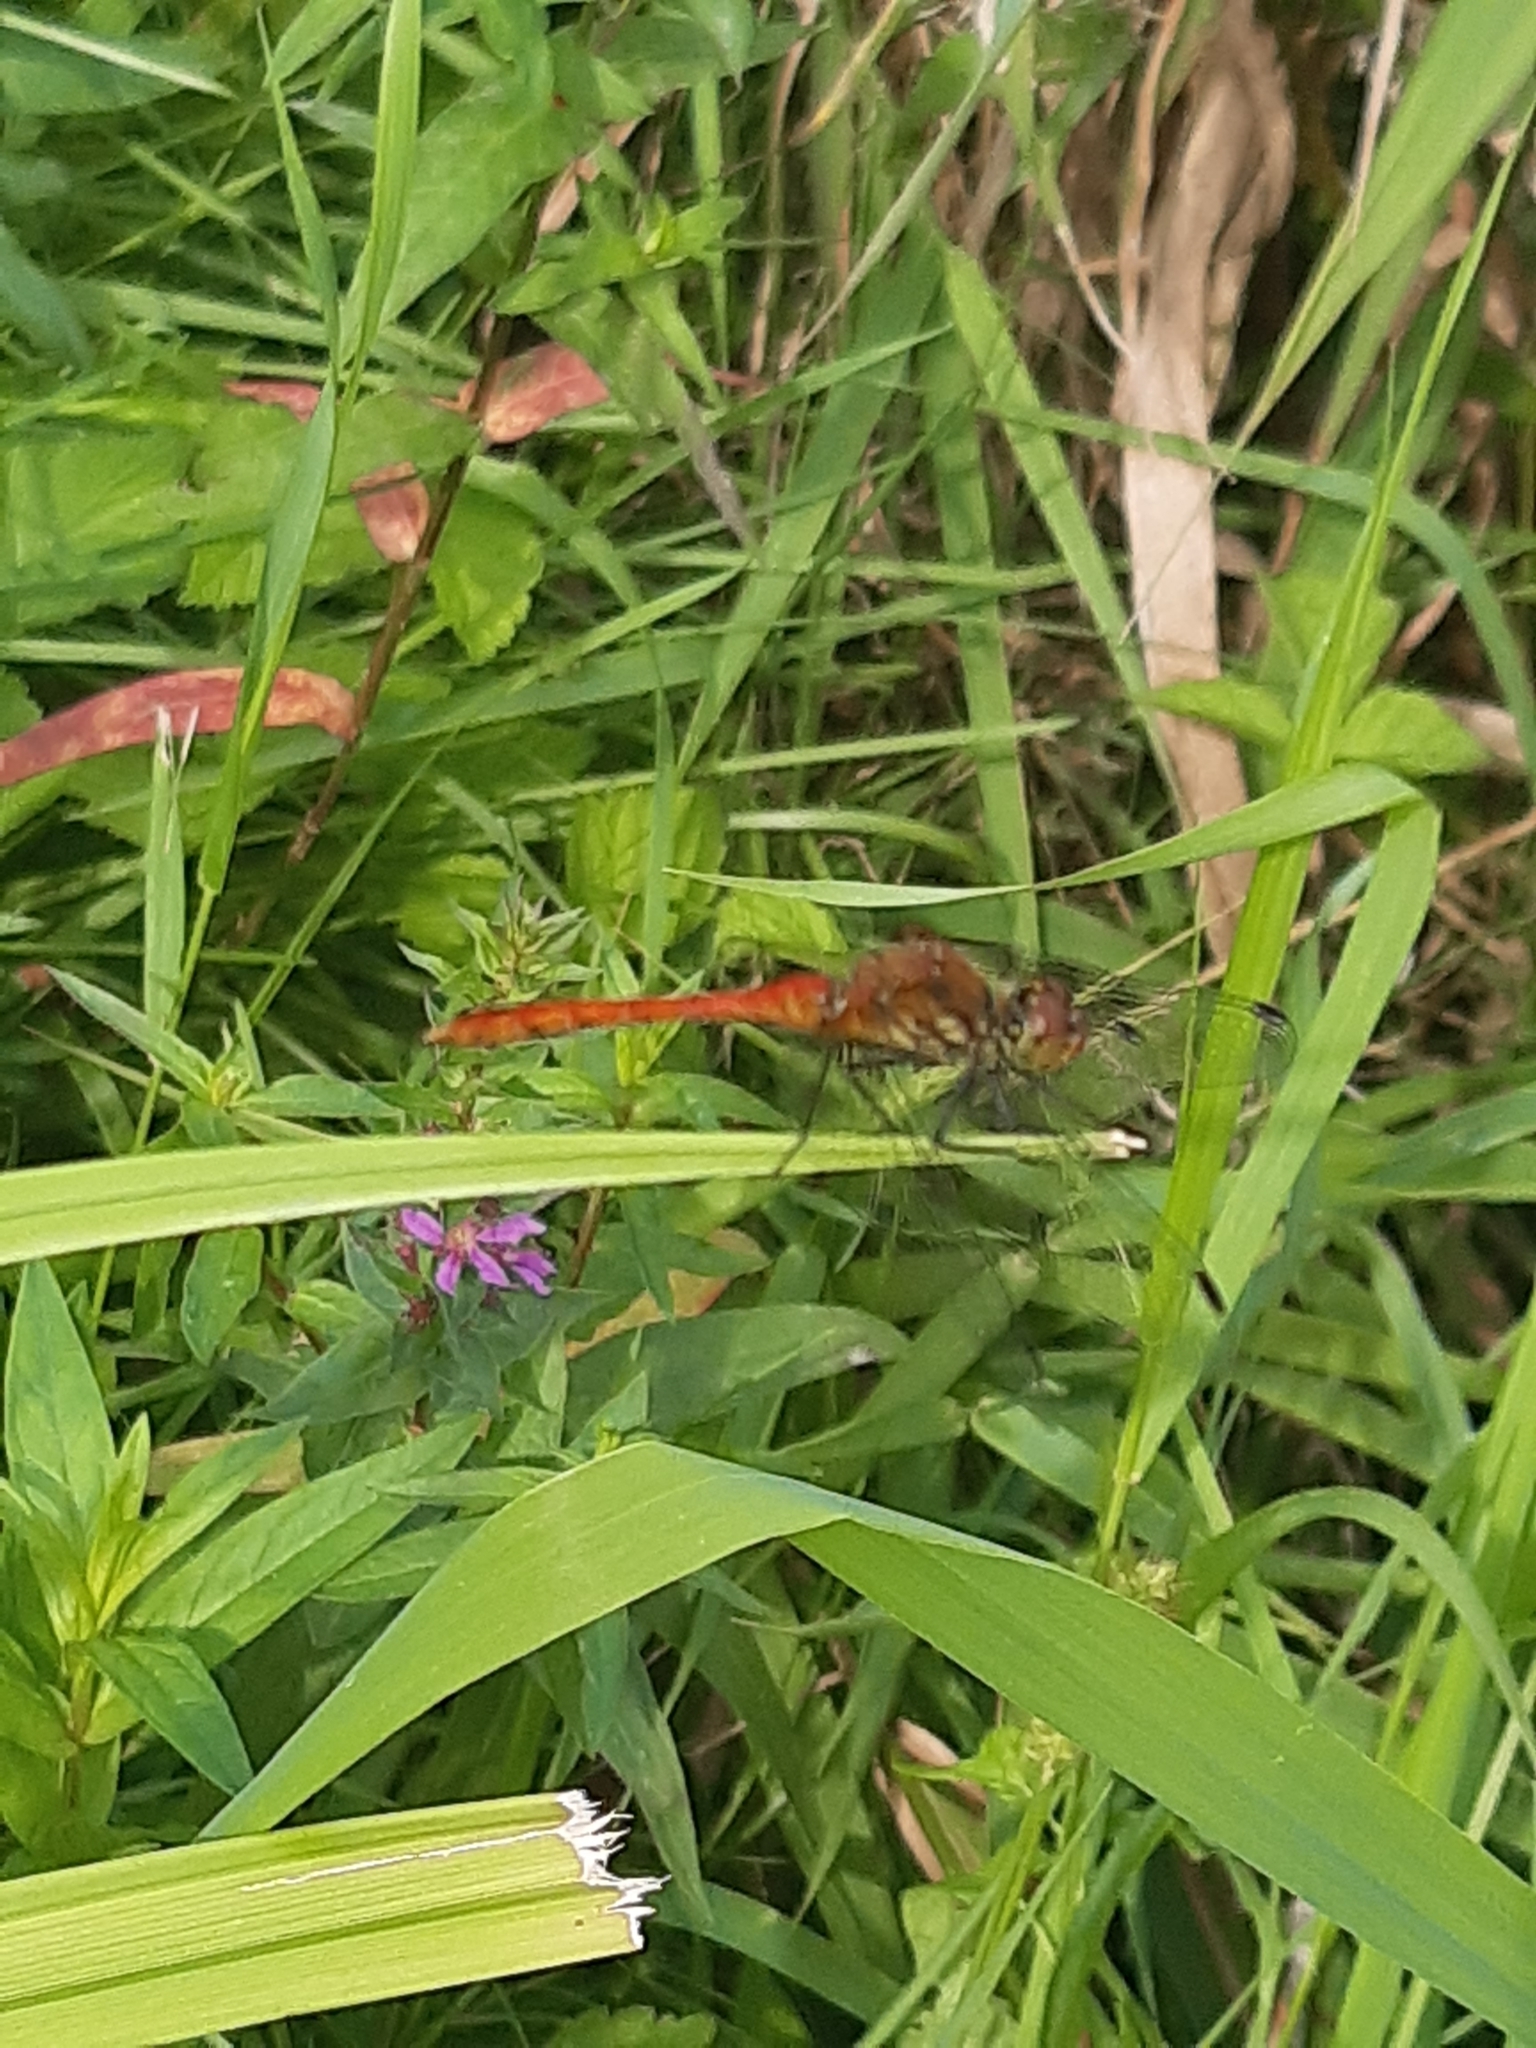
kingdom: Animalia
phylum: Arthropoda
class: Insecta
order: Odonata
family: Libellulidae
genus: Sympetrum
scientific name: Sympetrum sanguineum
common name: Ruddy darter
